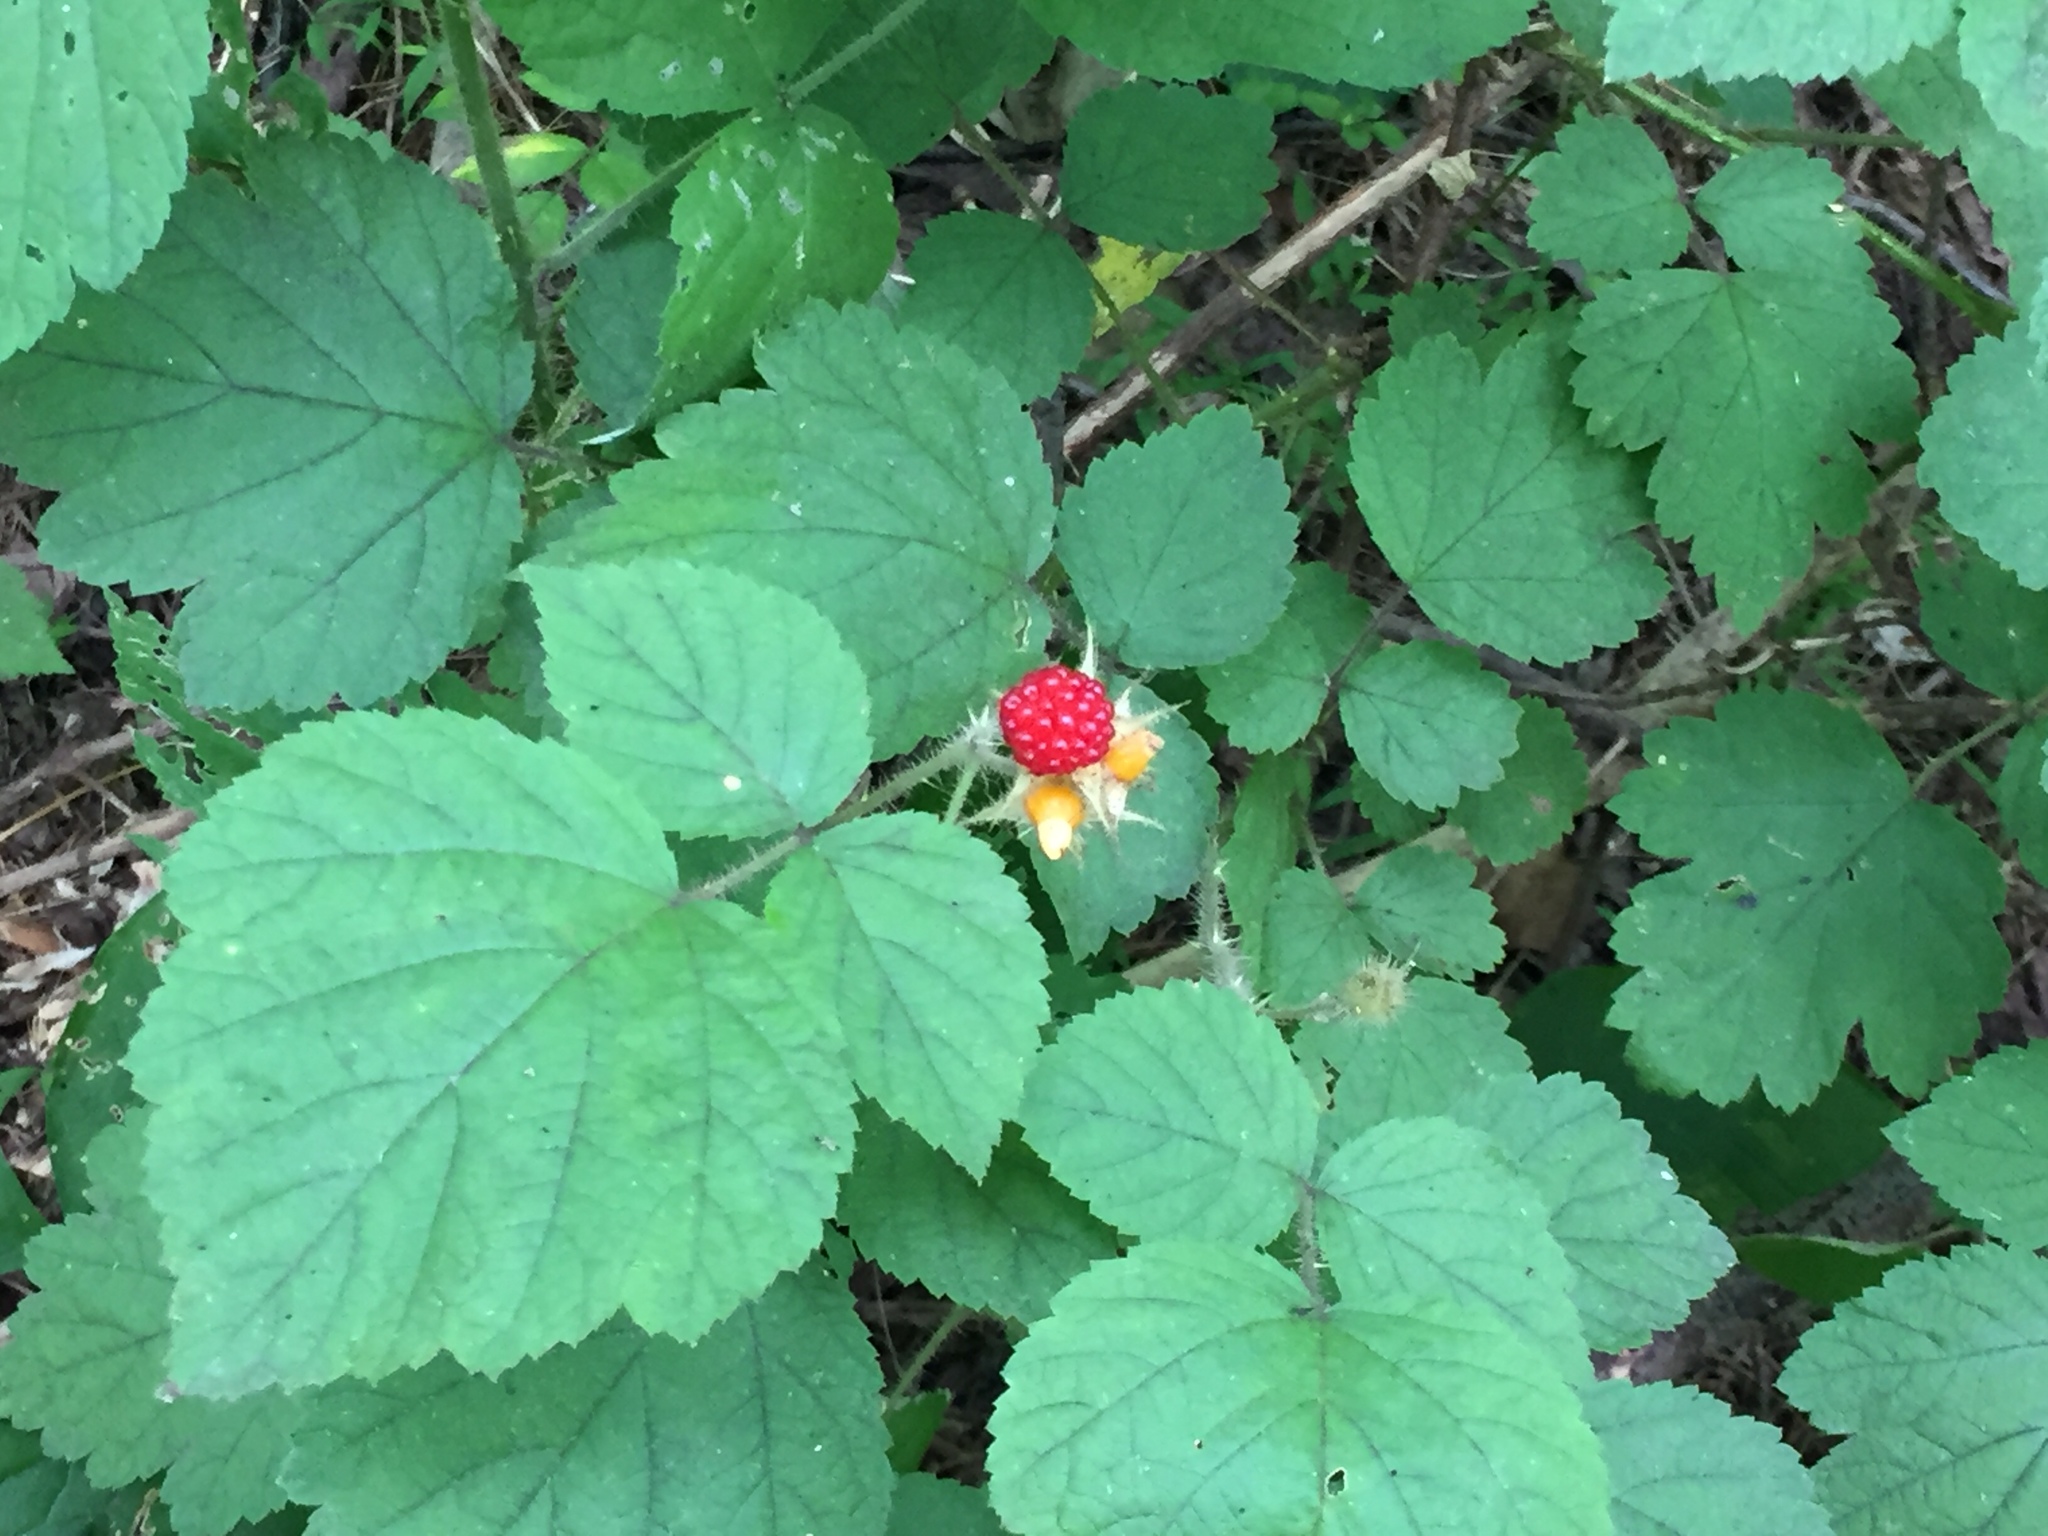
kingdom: Plantae
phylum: Tracheophyta
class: Magnoliopsida
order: Rosales
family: Rosaceae
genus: Rubus
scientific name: Rubus phoenicolasius
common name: Japanese wineberry
